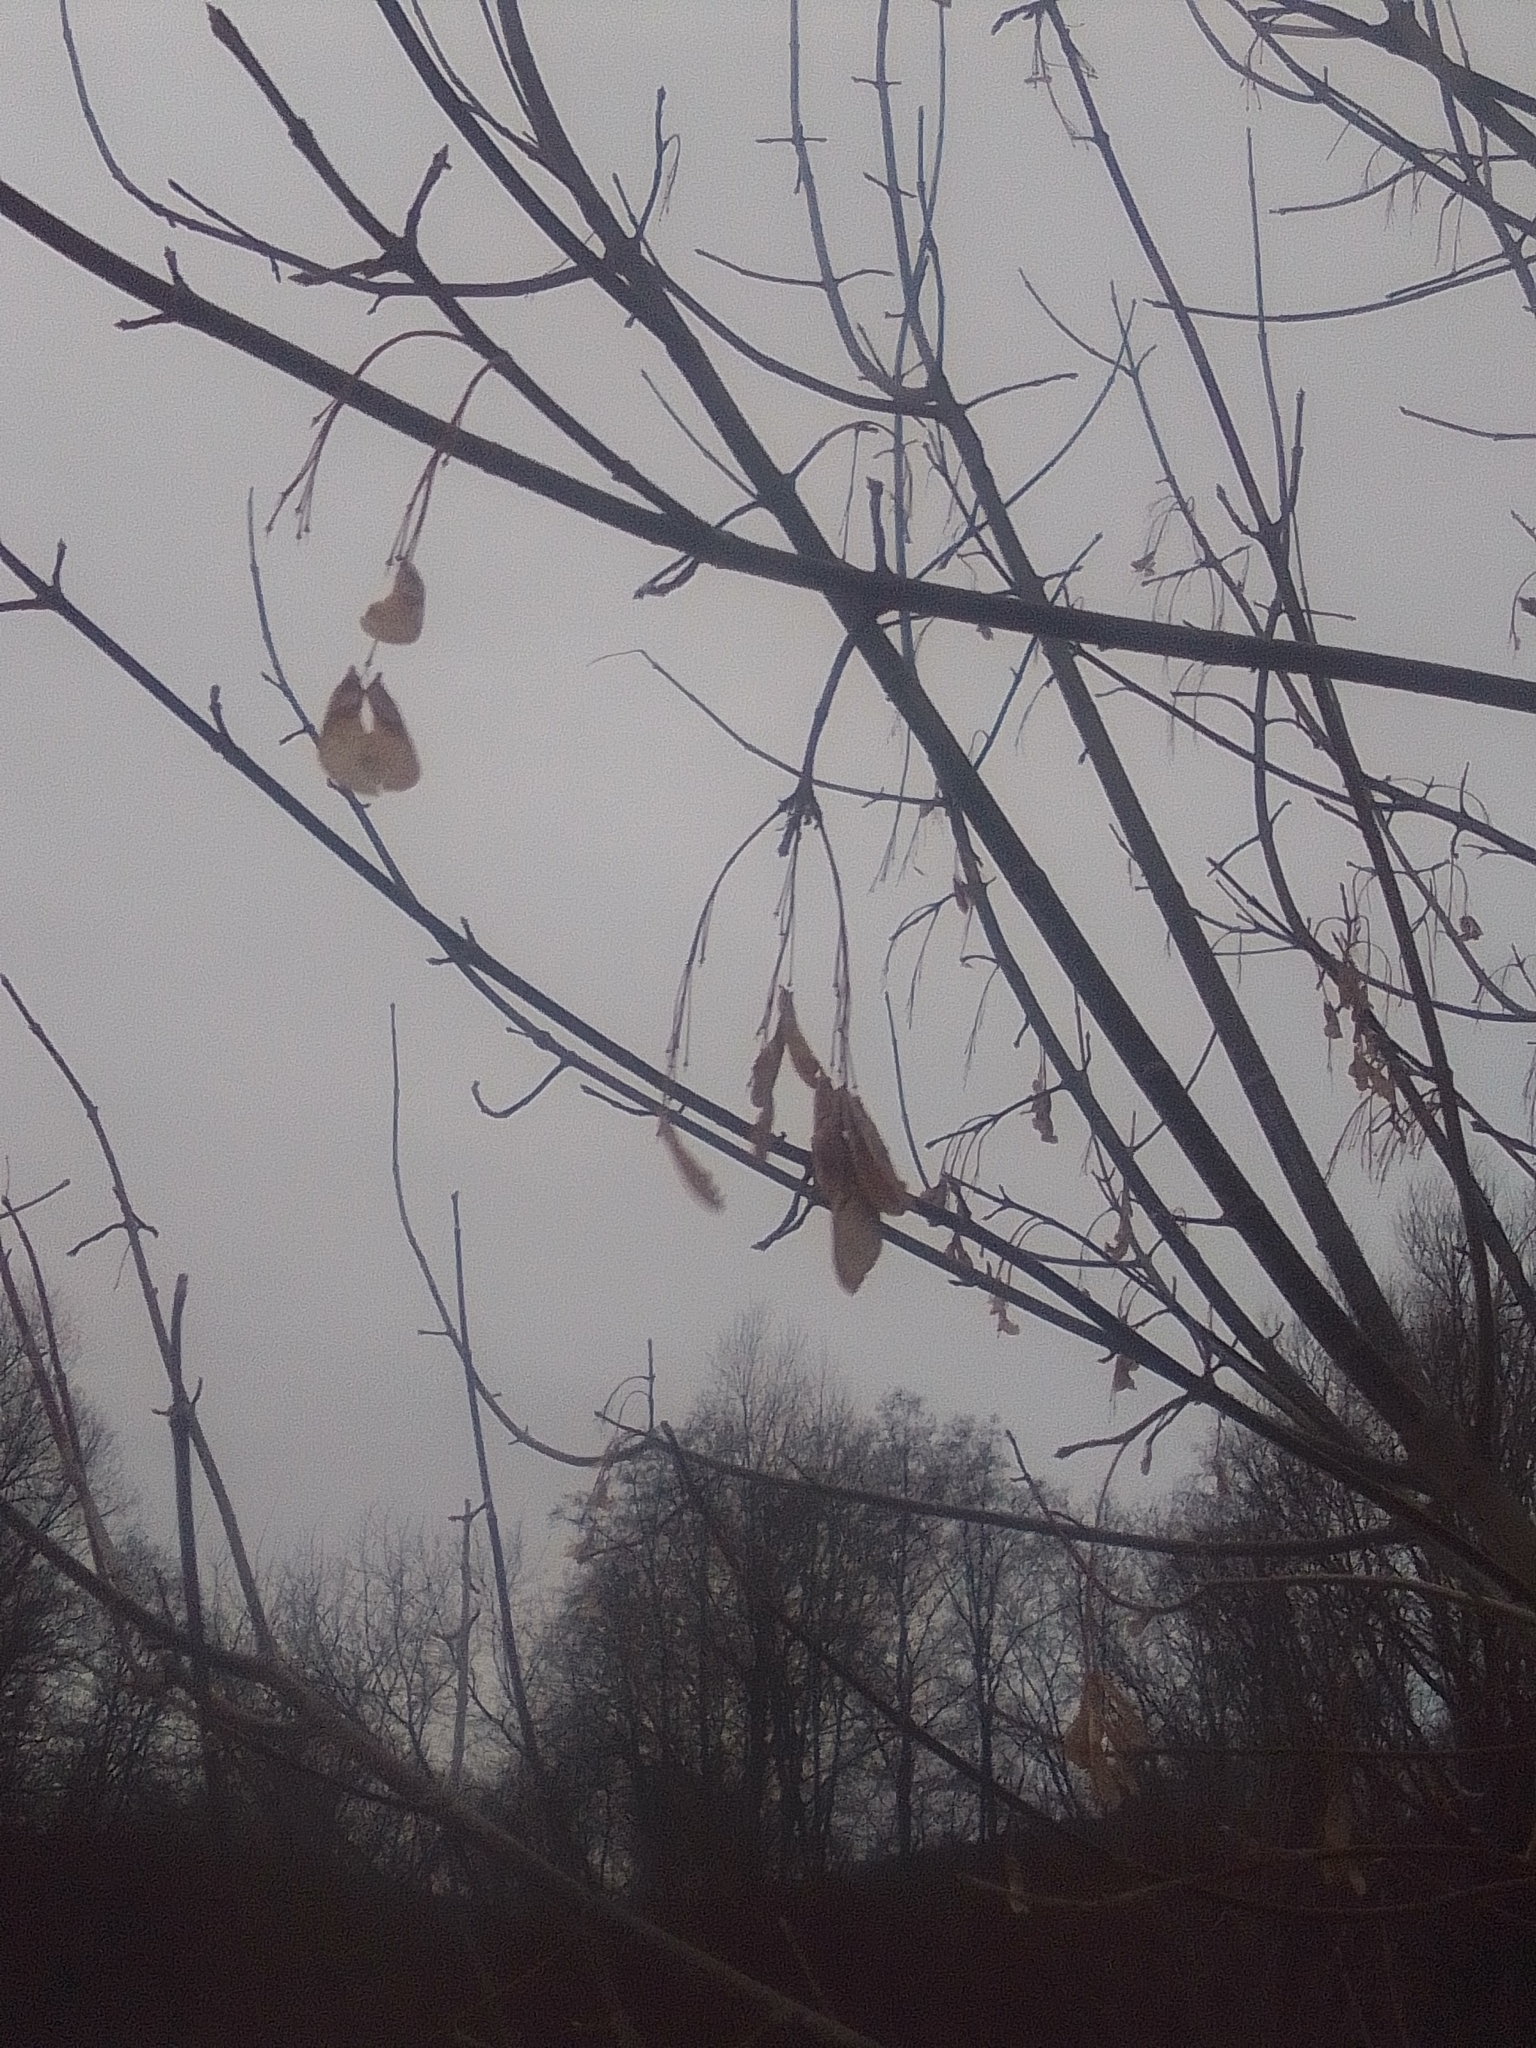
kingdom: Plantae
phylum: Tracheophyta
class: Magnoliopsida
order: Sapindales
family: Sapindaceae
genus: Acer
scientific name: Acer negundo
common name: Ashleaf maple
